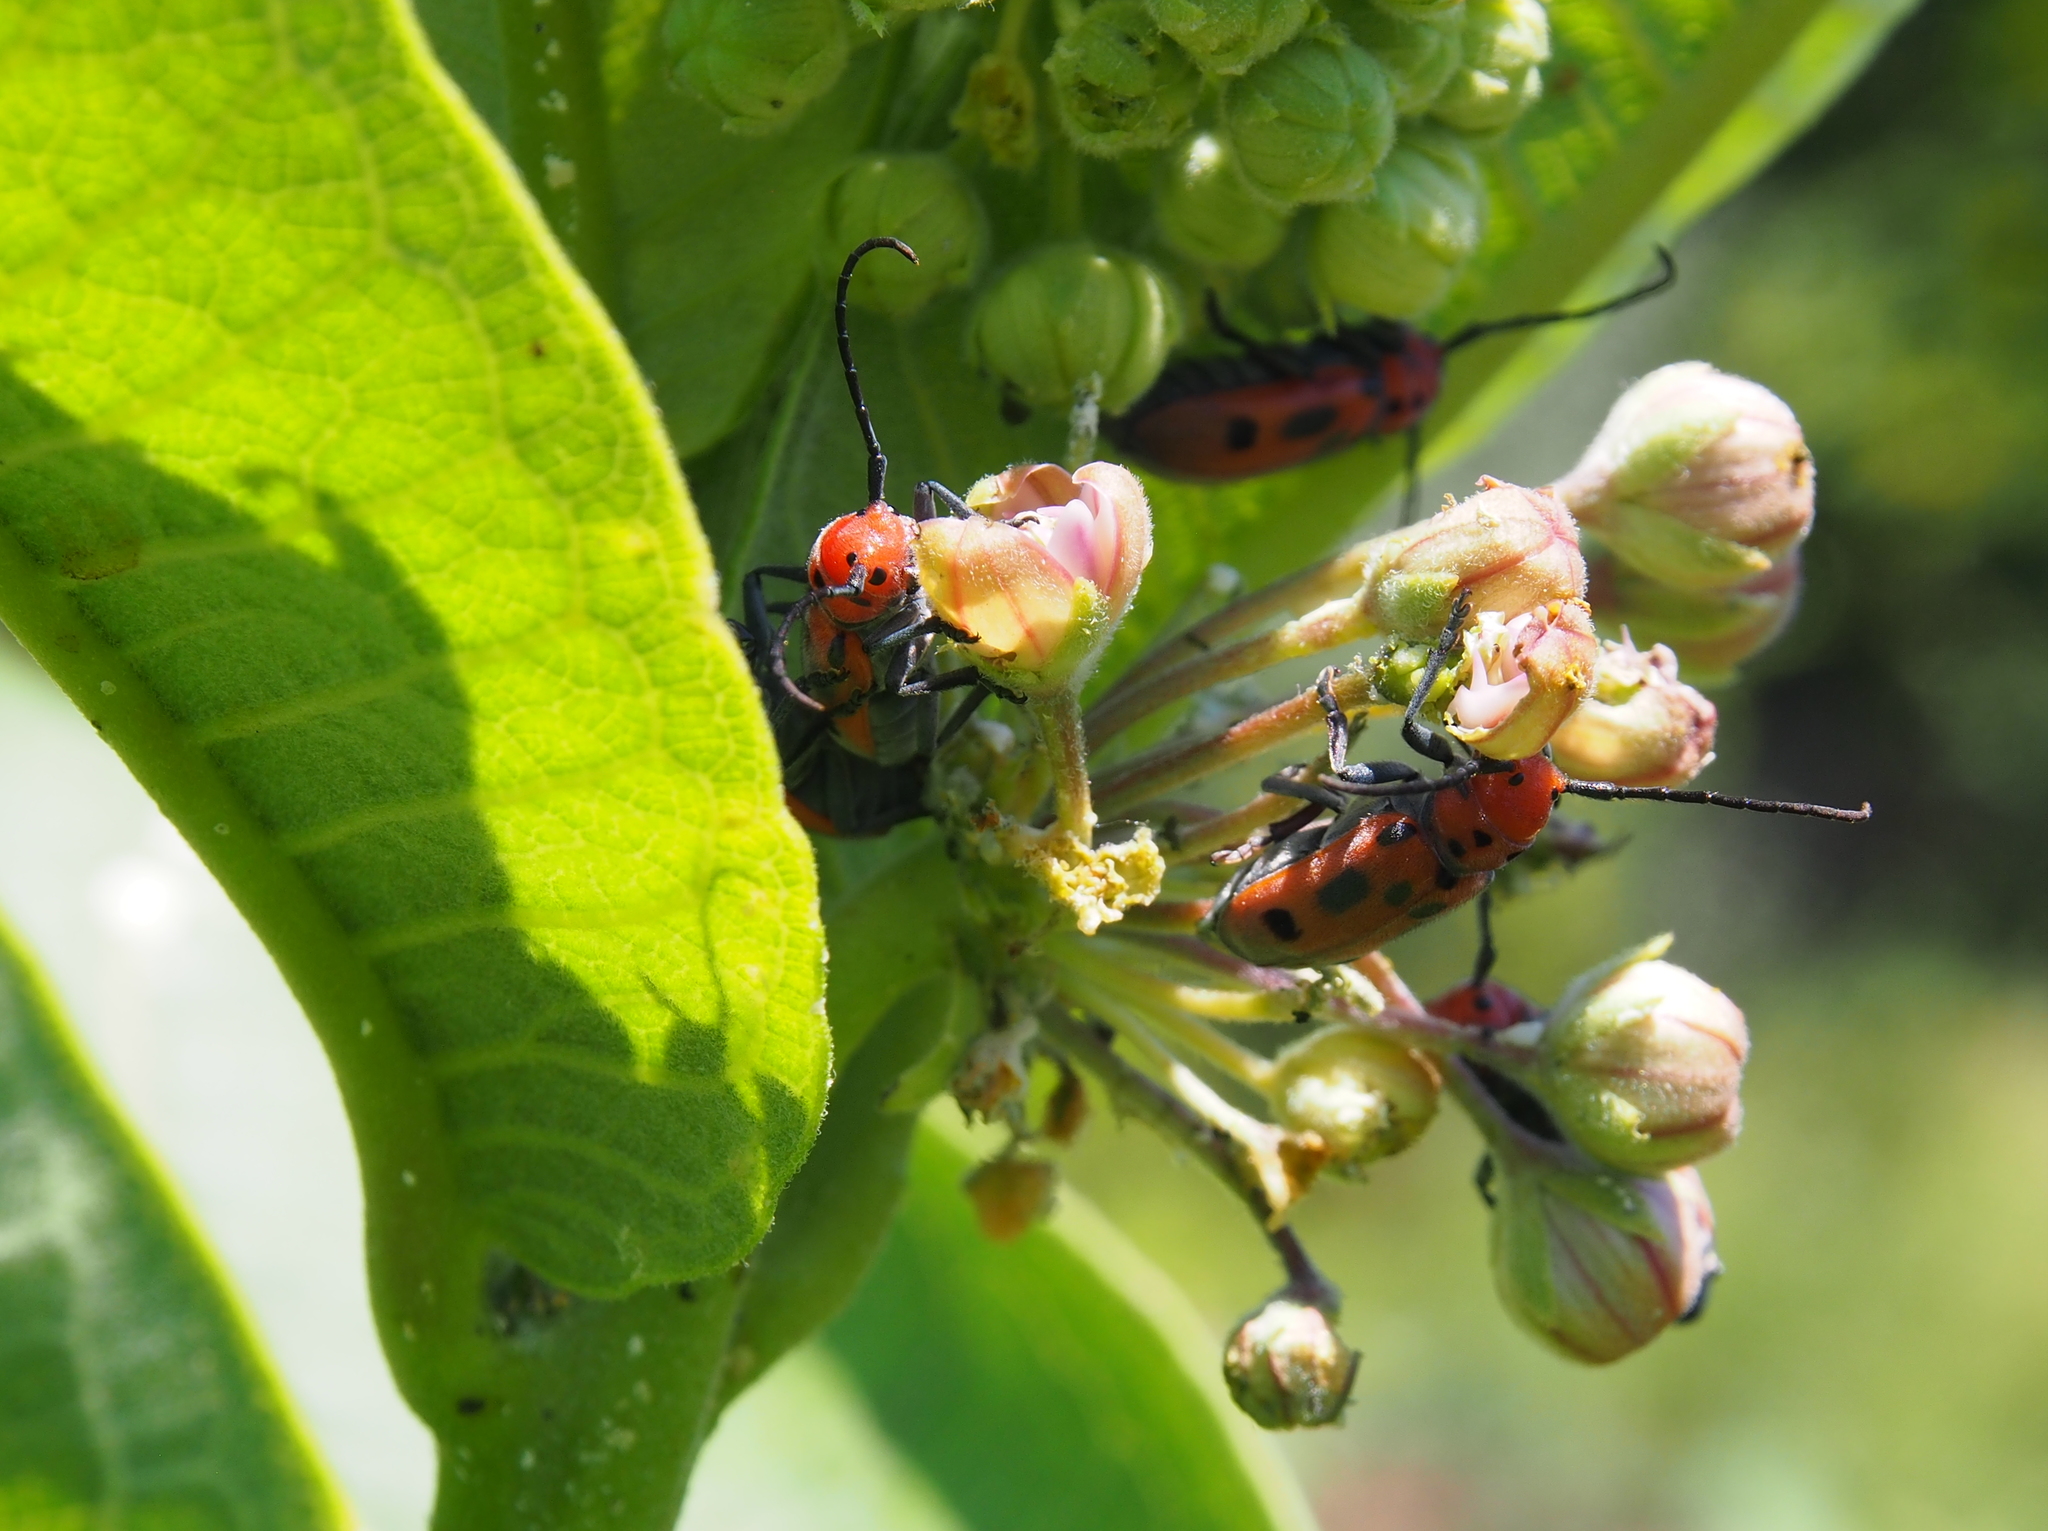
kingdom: Animalia
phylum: Arthropoda
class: Insecta
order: Coleoptera
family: Cerambycidae
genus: Tetraopes
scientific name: Tetraopes tetrophthalmus
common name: Red milkweed beetle
